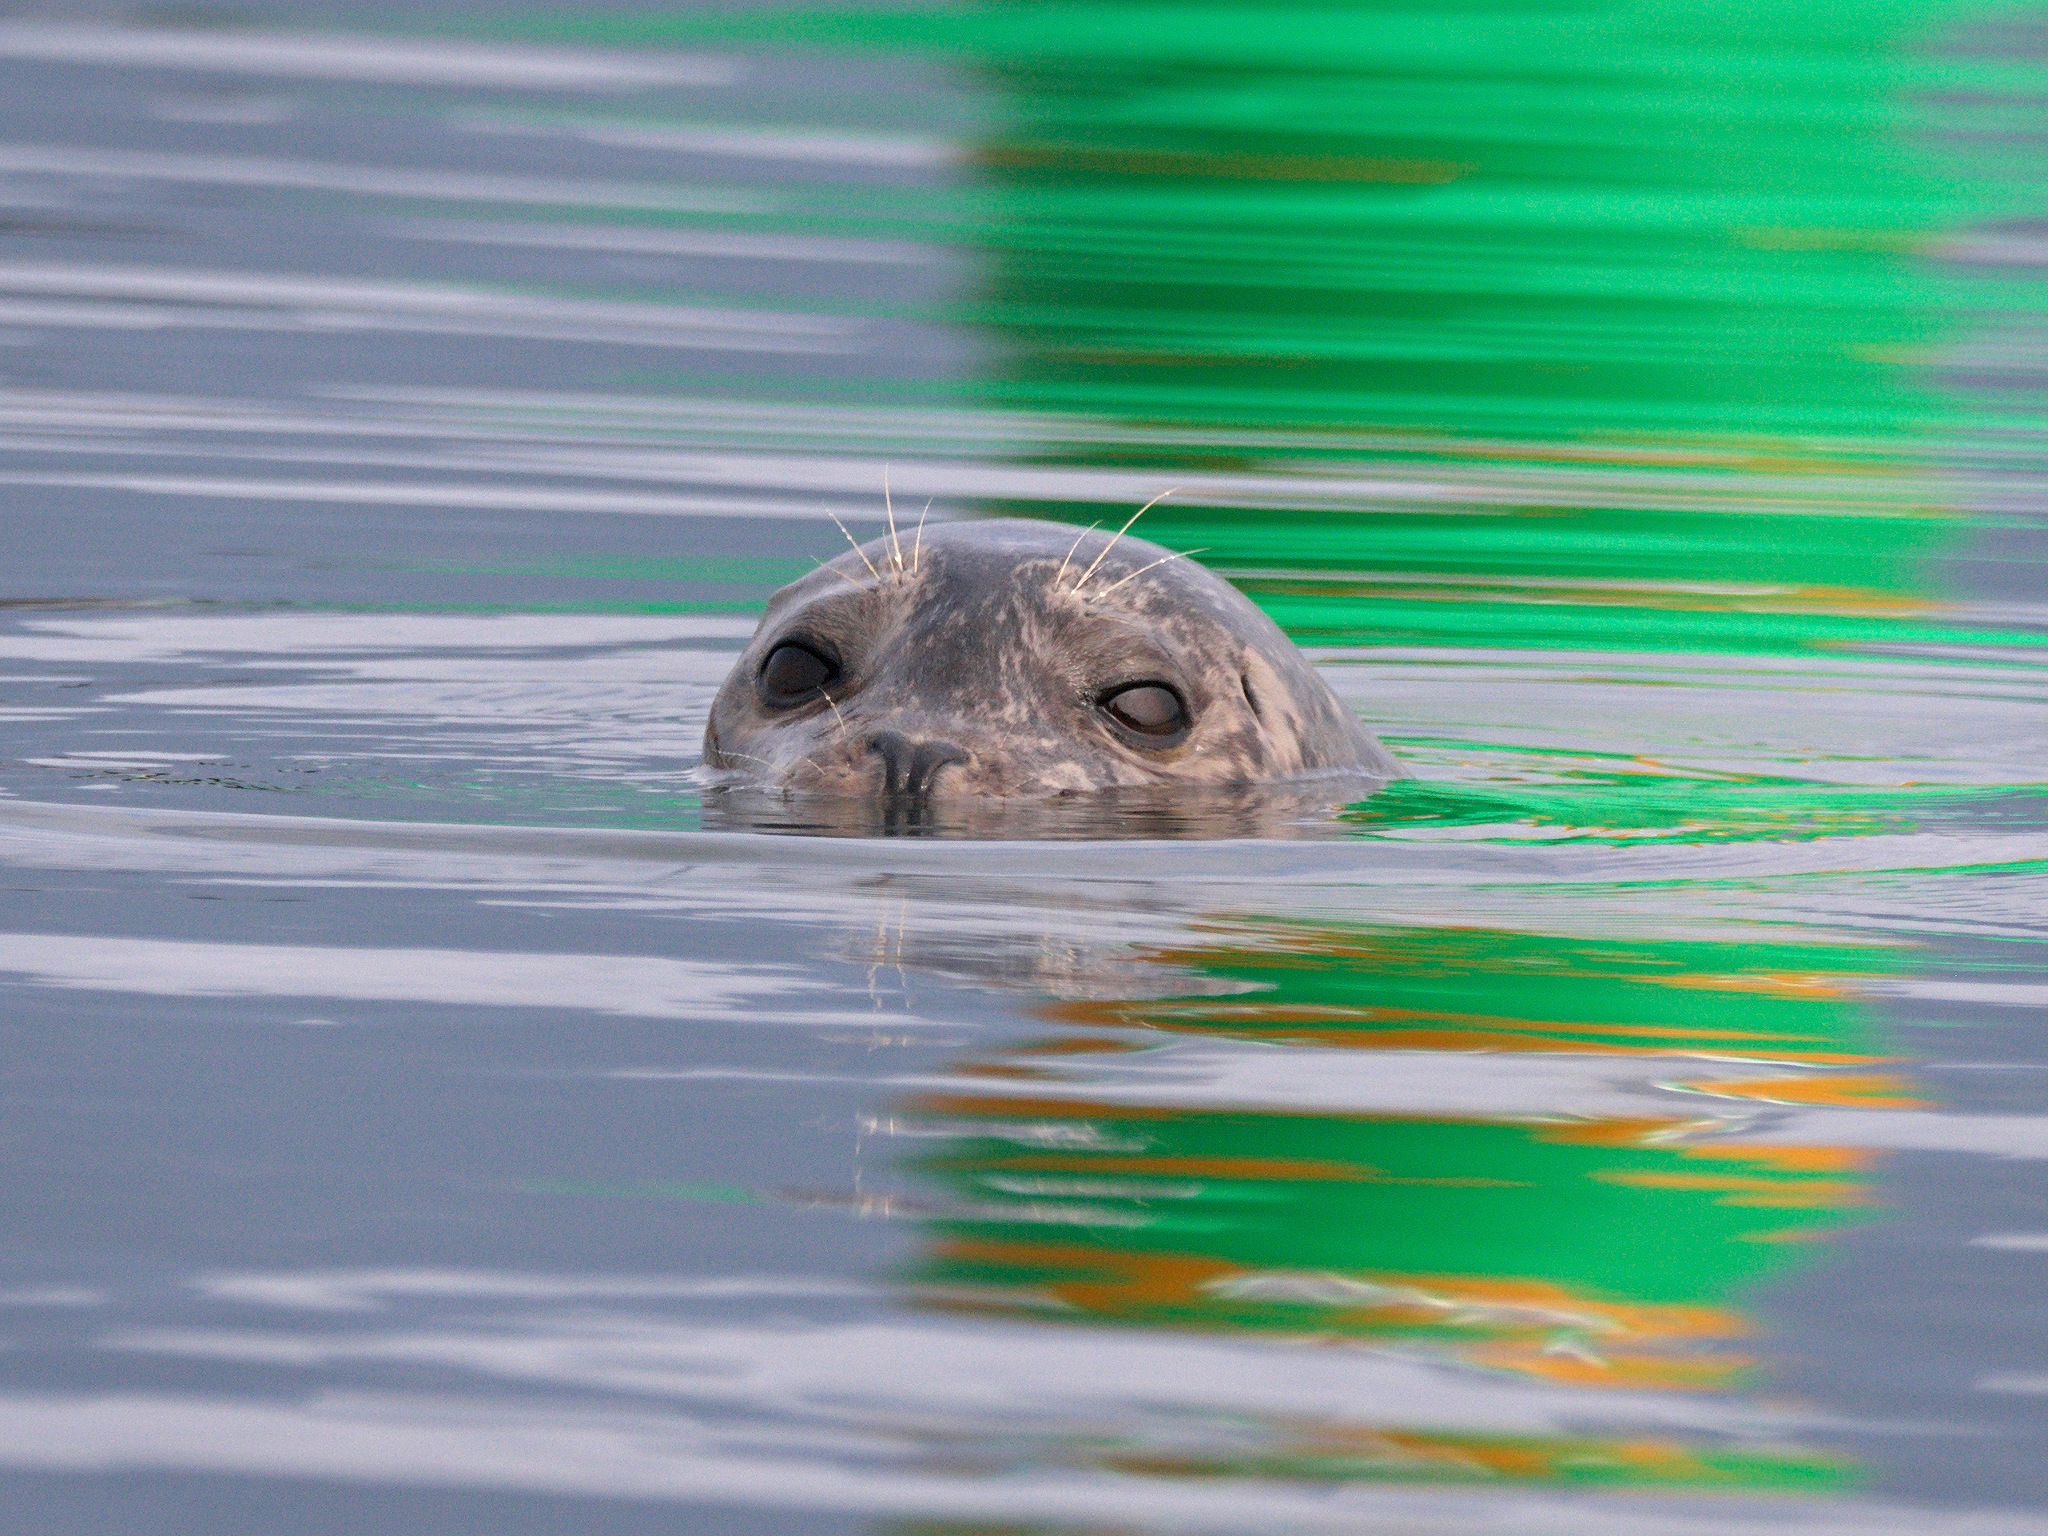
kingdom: Animalia
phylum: Chordata
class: Mammalia
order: Carnivora
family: Phocidae
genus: Phoca
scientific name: Phoca vitulina
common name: Harbor seal
